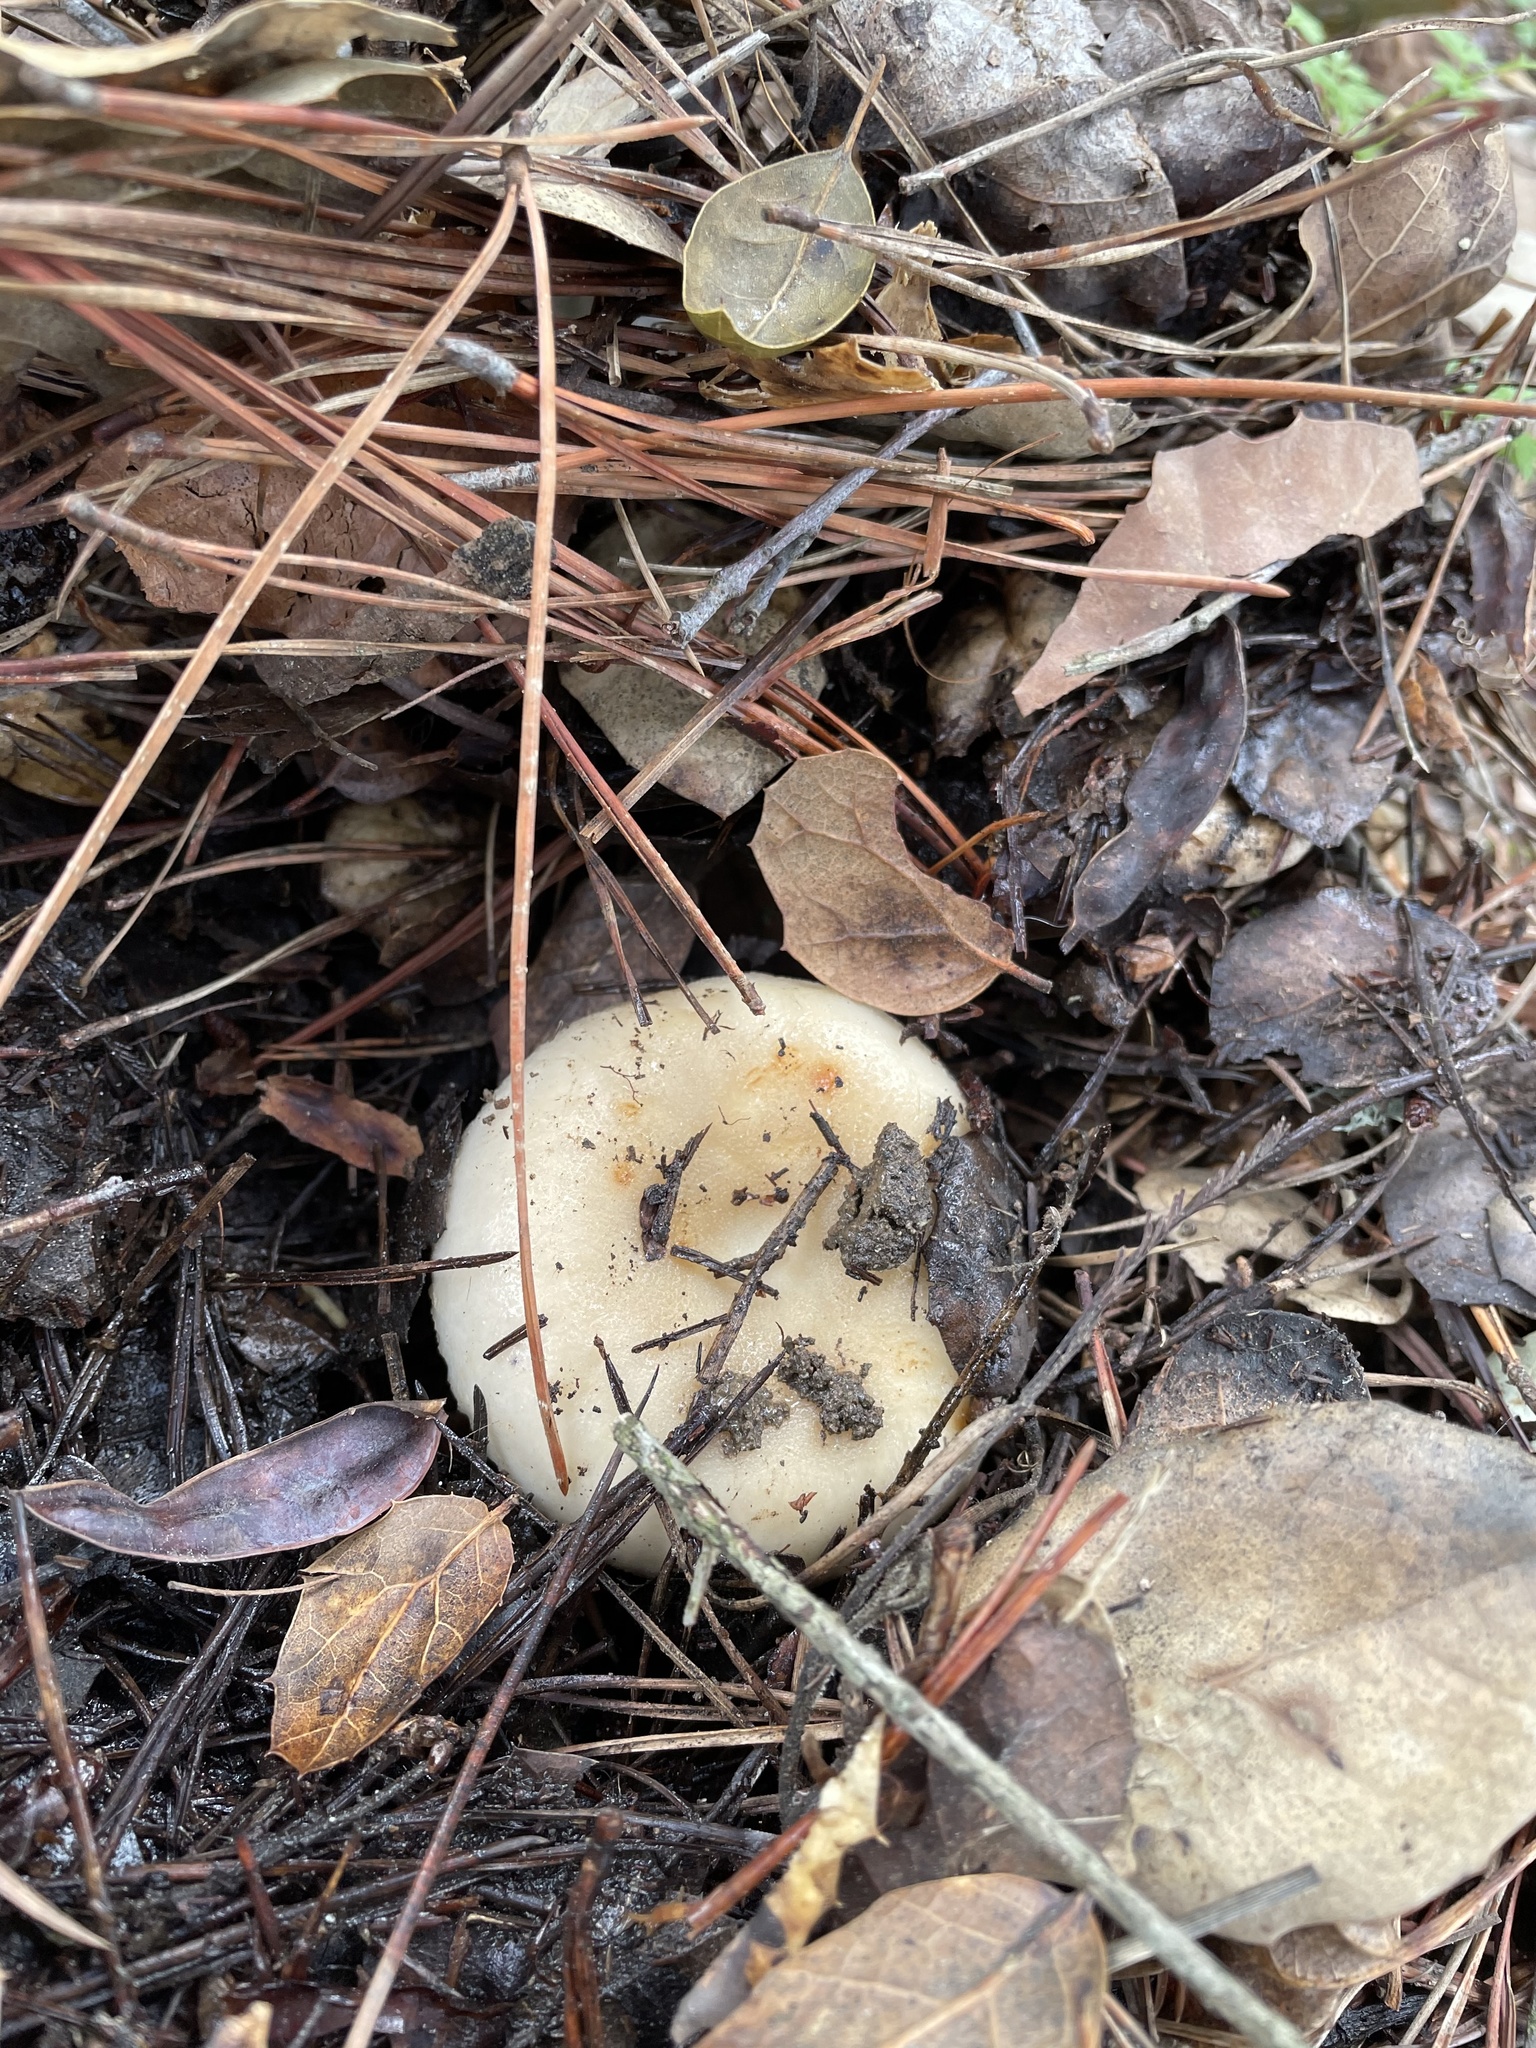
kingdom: Fungi
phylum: Basidiomycota
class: Agaricomycetes
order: Russulales
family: Russulaceae
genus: Russula
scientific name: Russula cerolens
